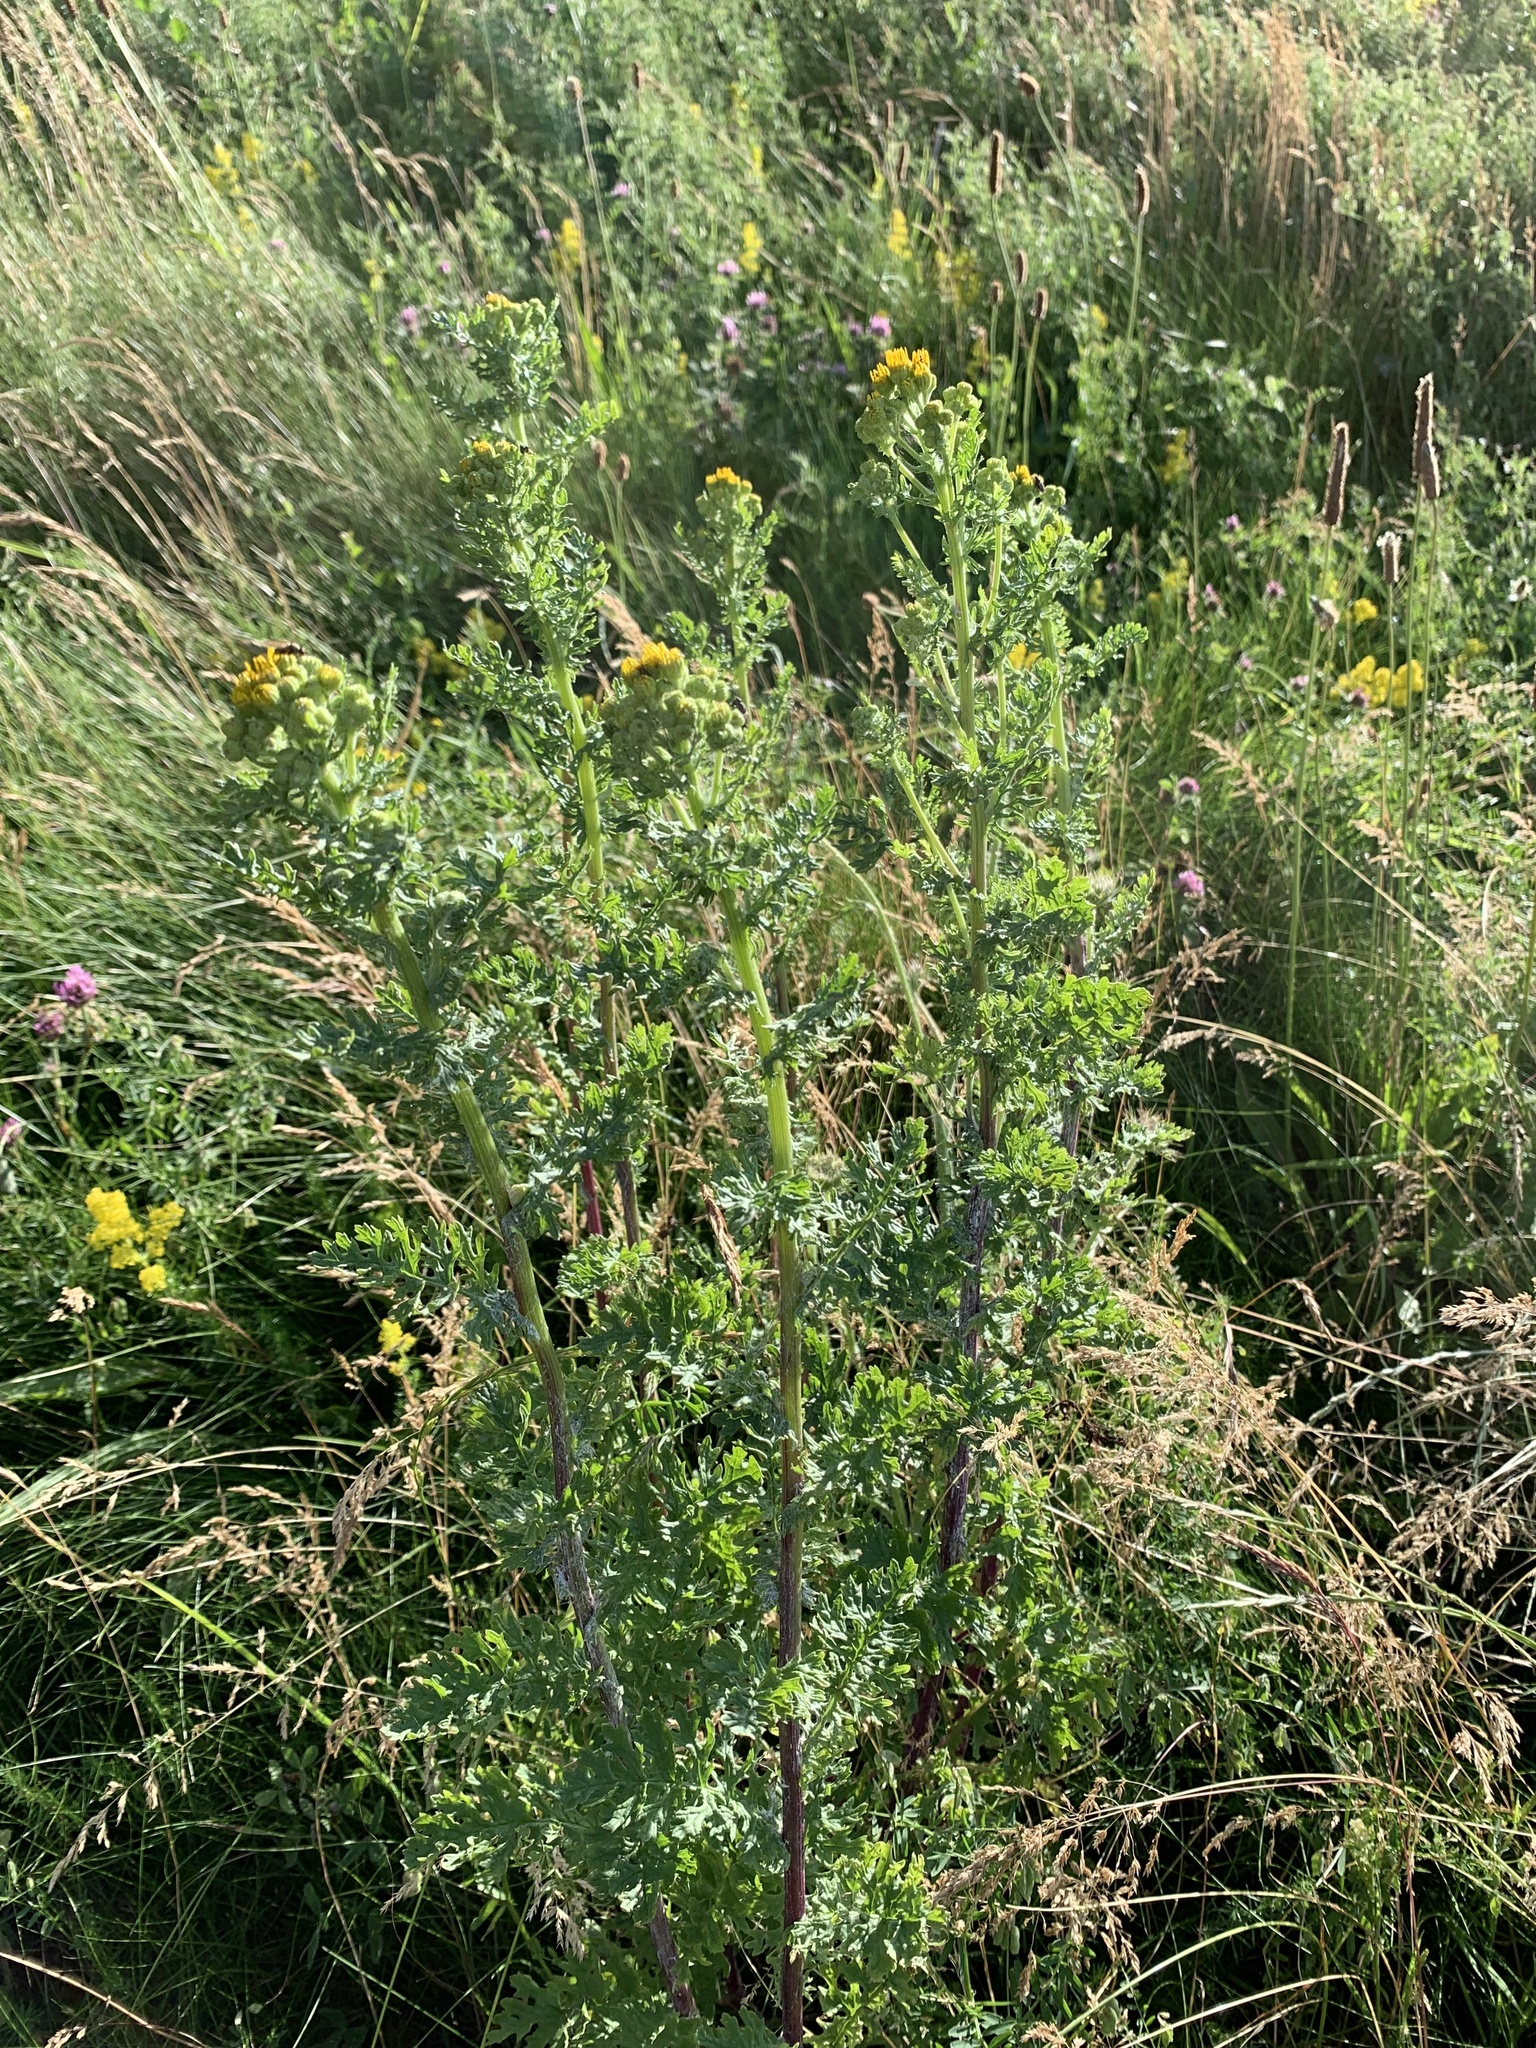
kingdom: Plantae
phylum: Tracheophyta
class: Magnoliopsida
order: Asterales
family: Asteraceae
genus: Jacobaea
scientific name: Jacobaea vulgaris
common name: Stinking willie
